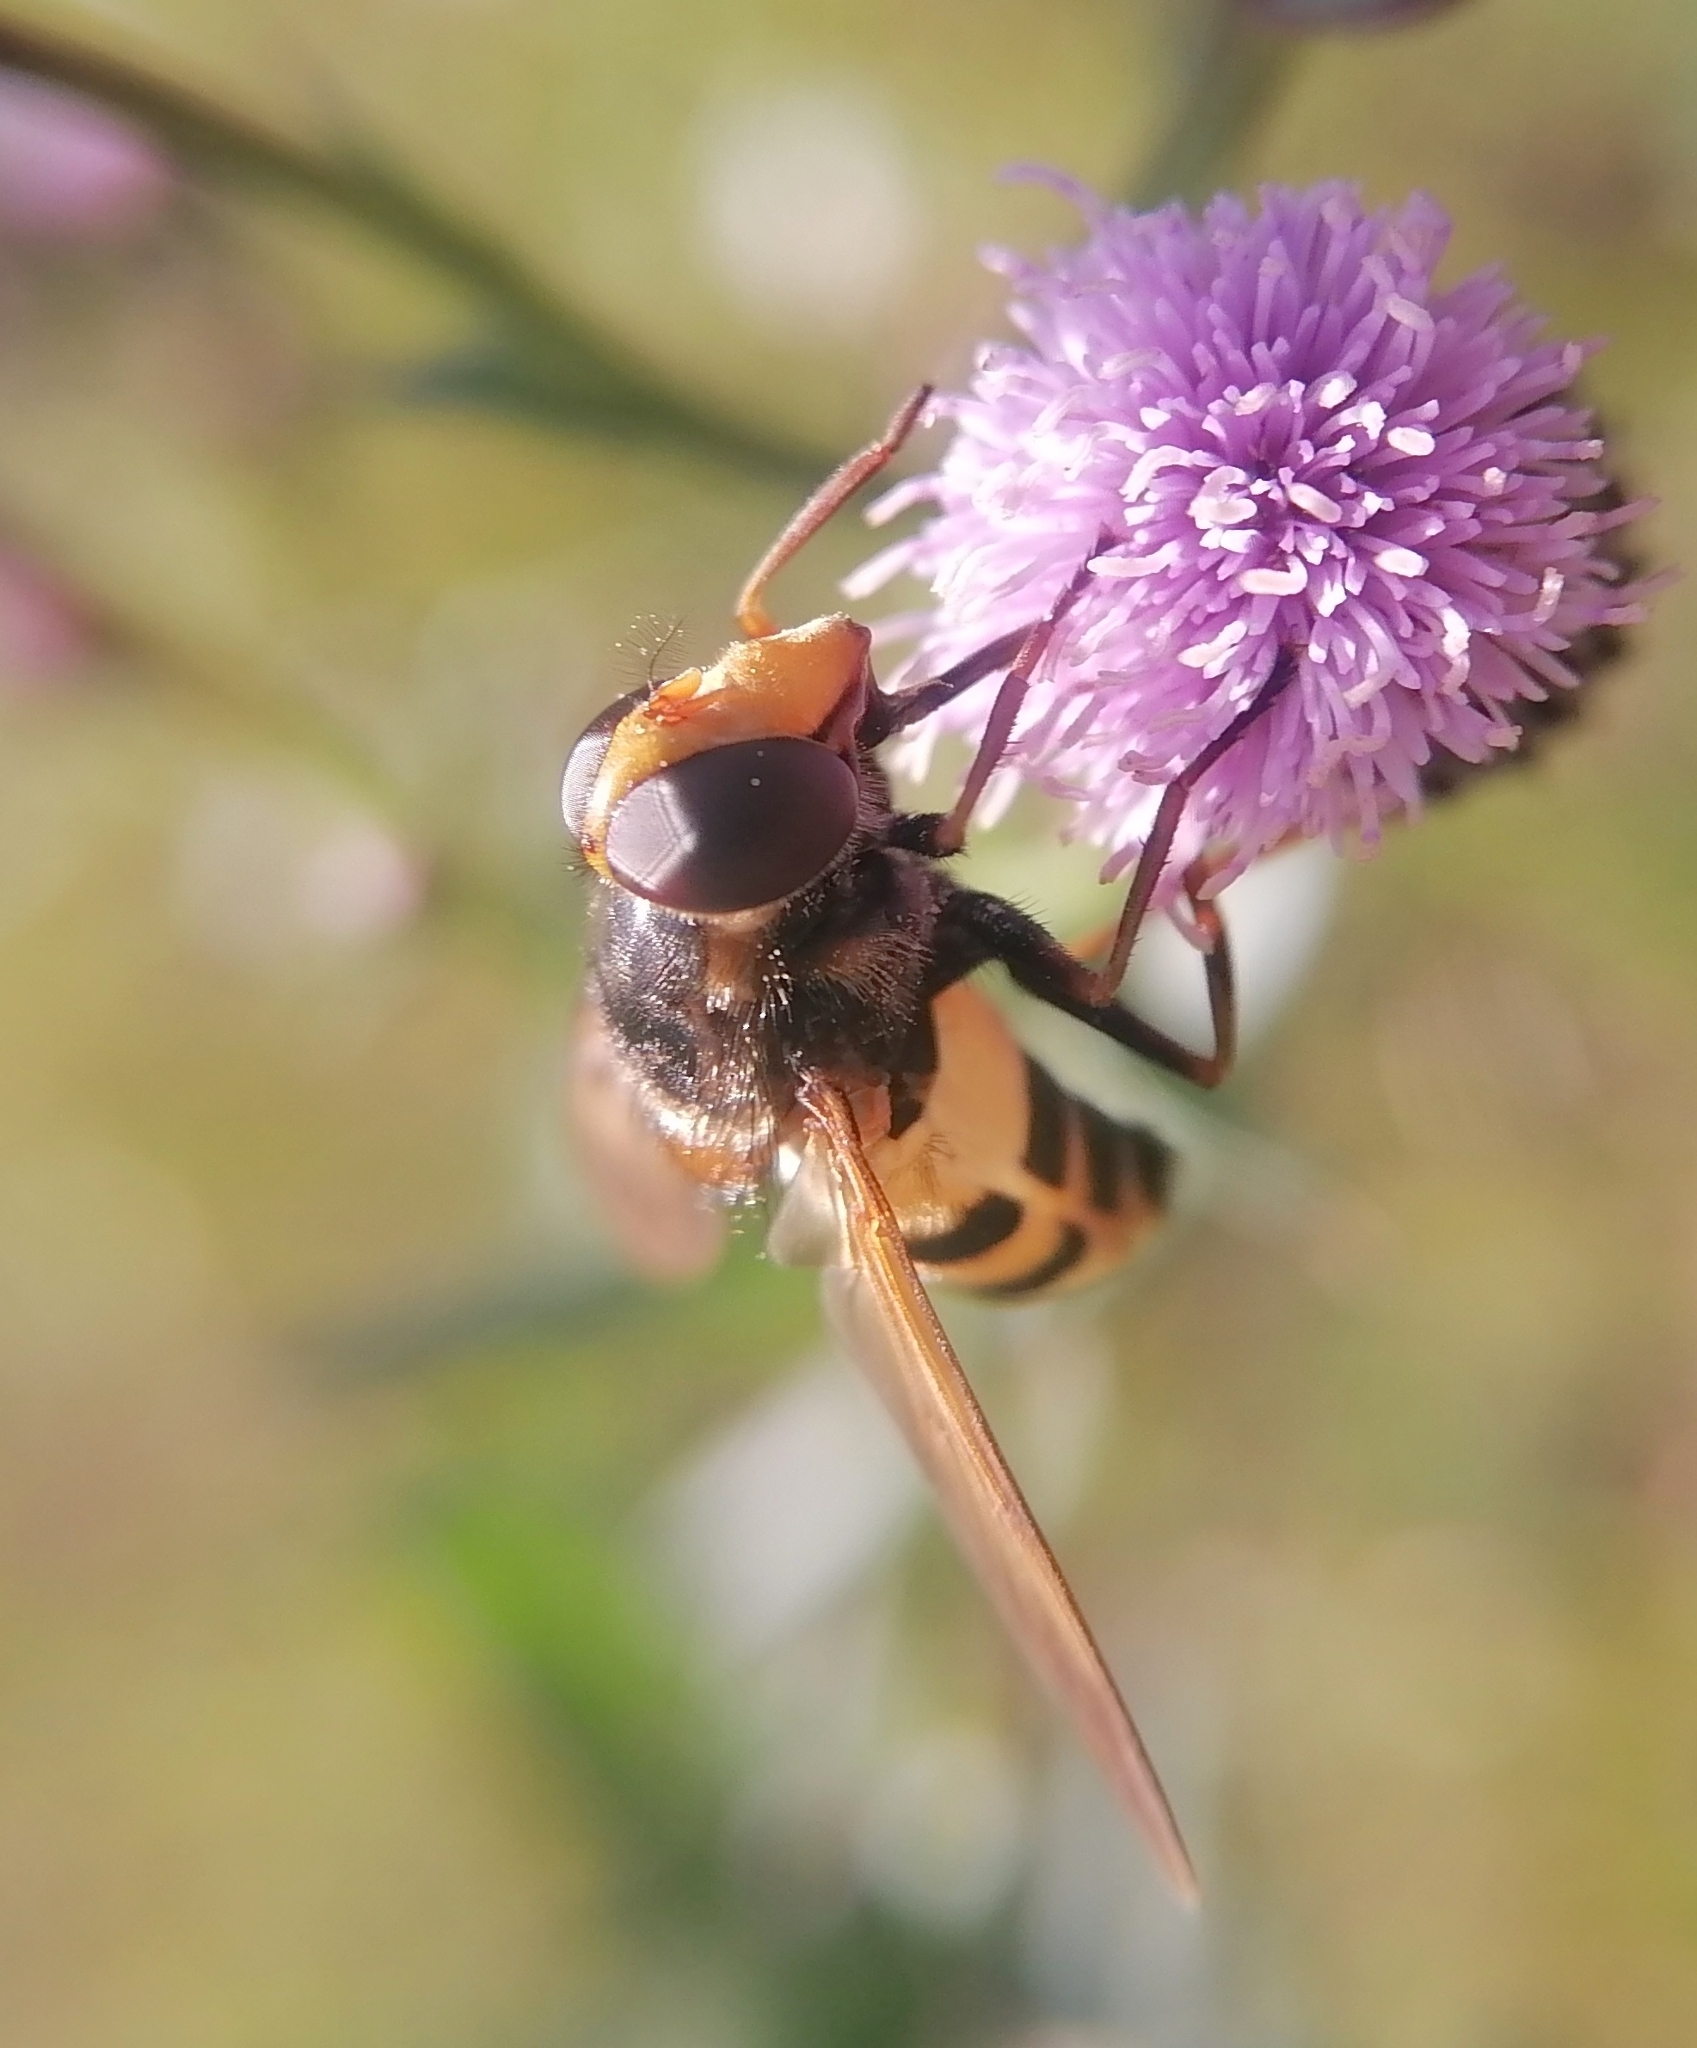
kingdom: Animalia
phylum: Arthropoda
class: Insecta
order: Diptera
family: Syrphidae
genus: Volucella
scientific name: Volucella inanis
